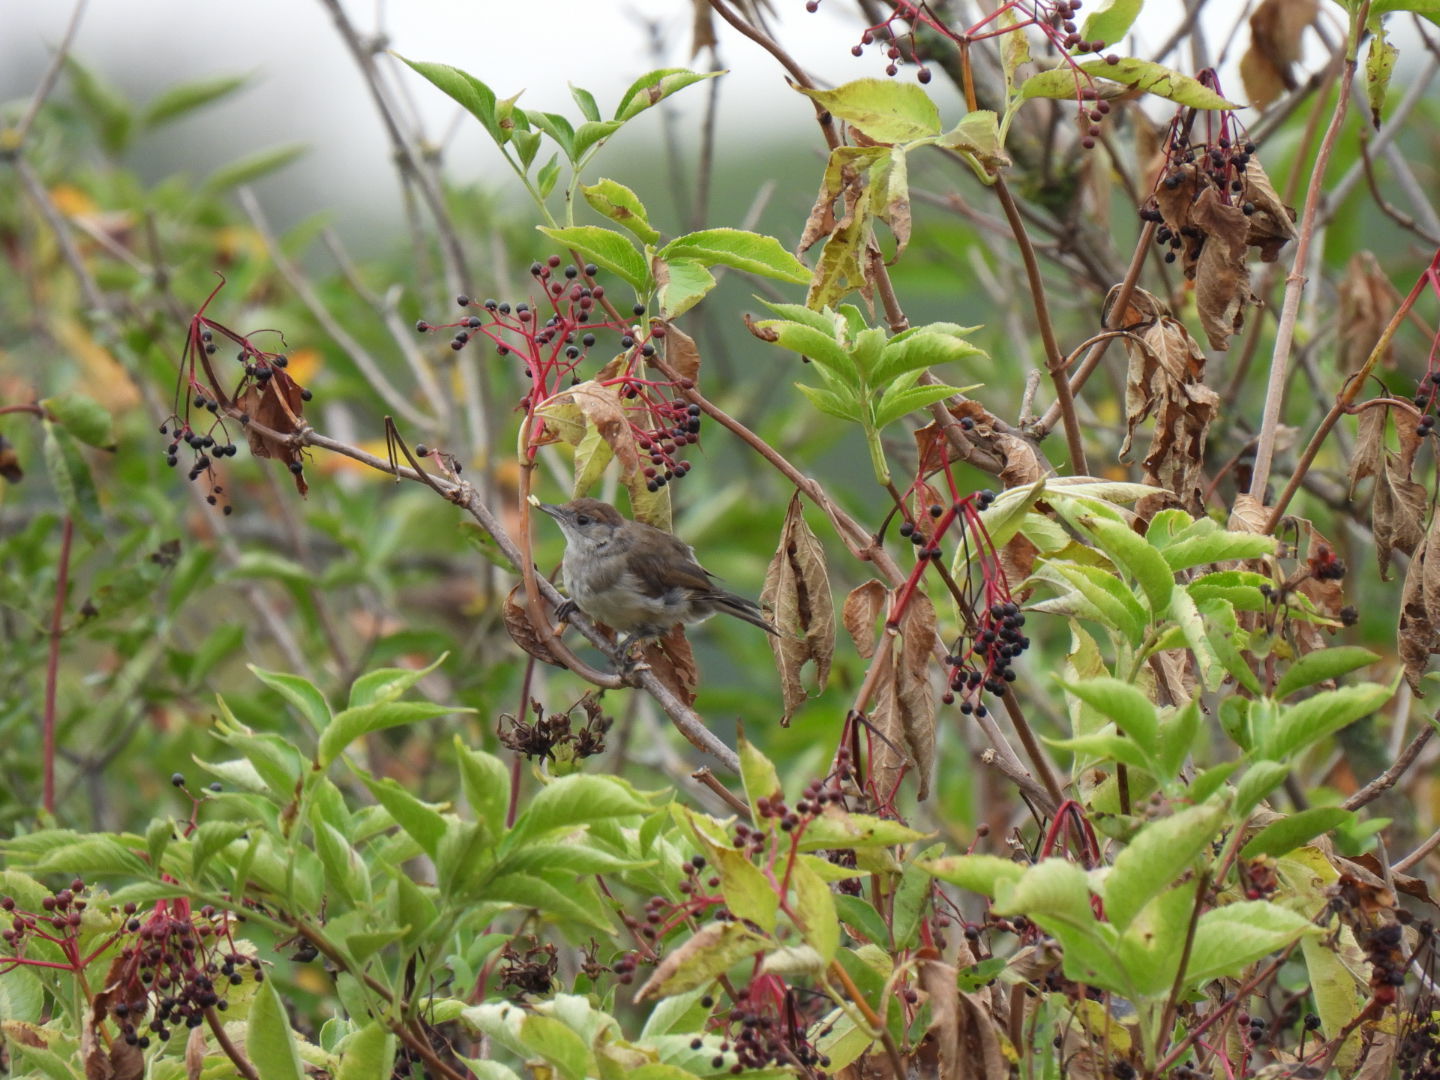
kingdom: Animalia
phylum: Chordata
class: Aves
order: Passeriformes
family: Sylviidae
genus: Sylvia
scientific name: Sylvia atricapilla
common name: Eurasian blackcap
